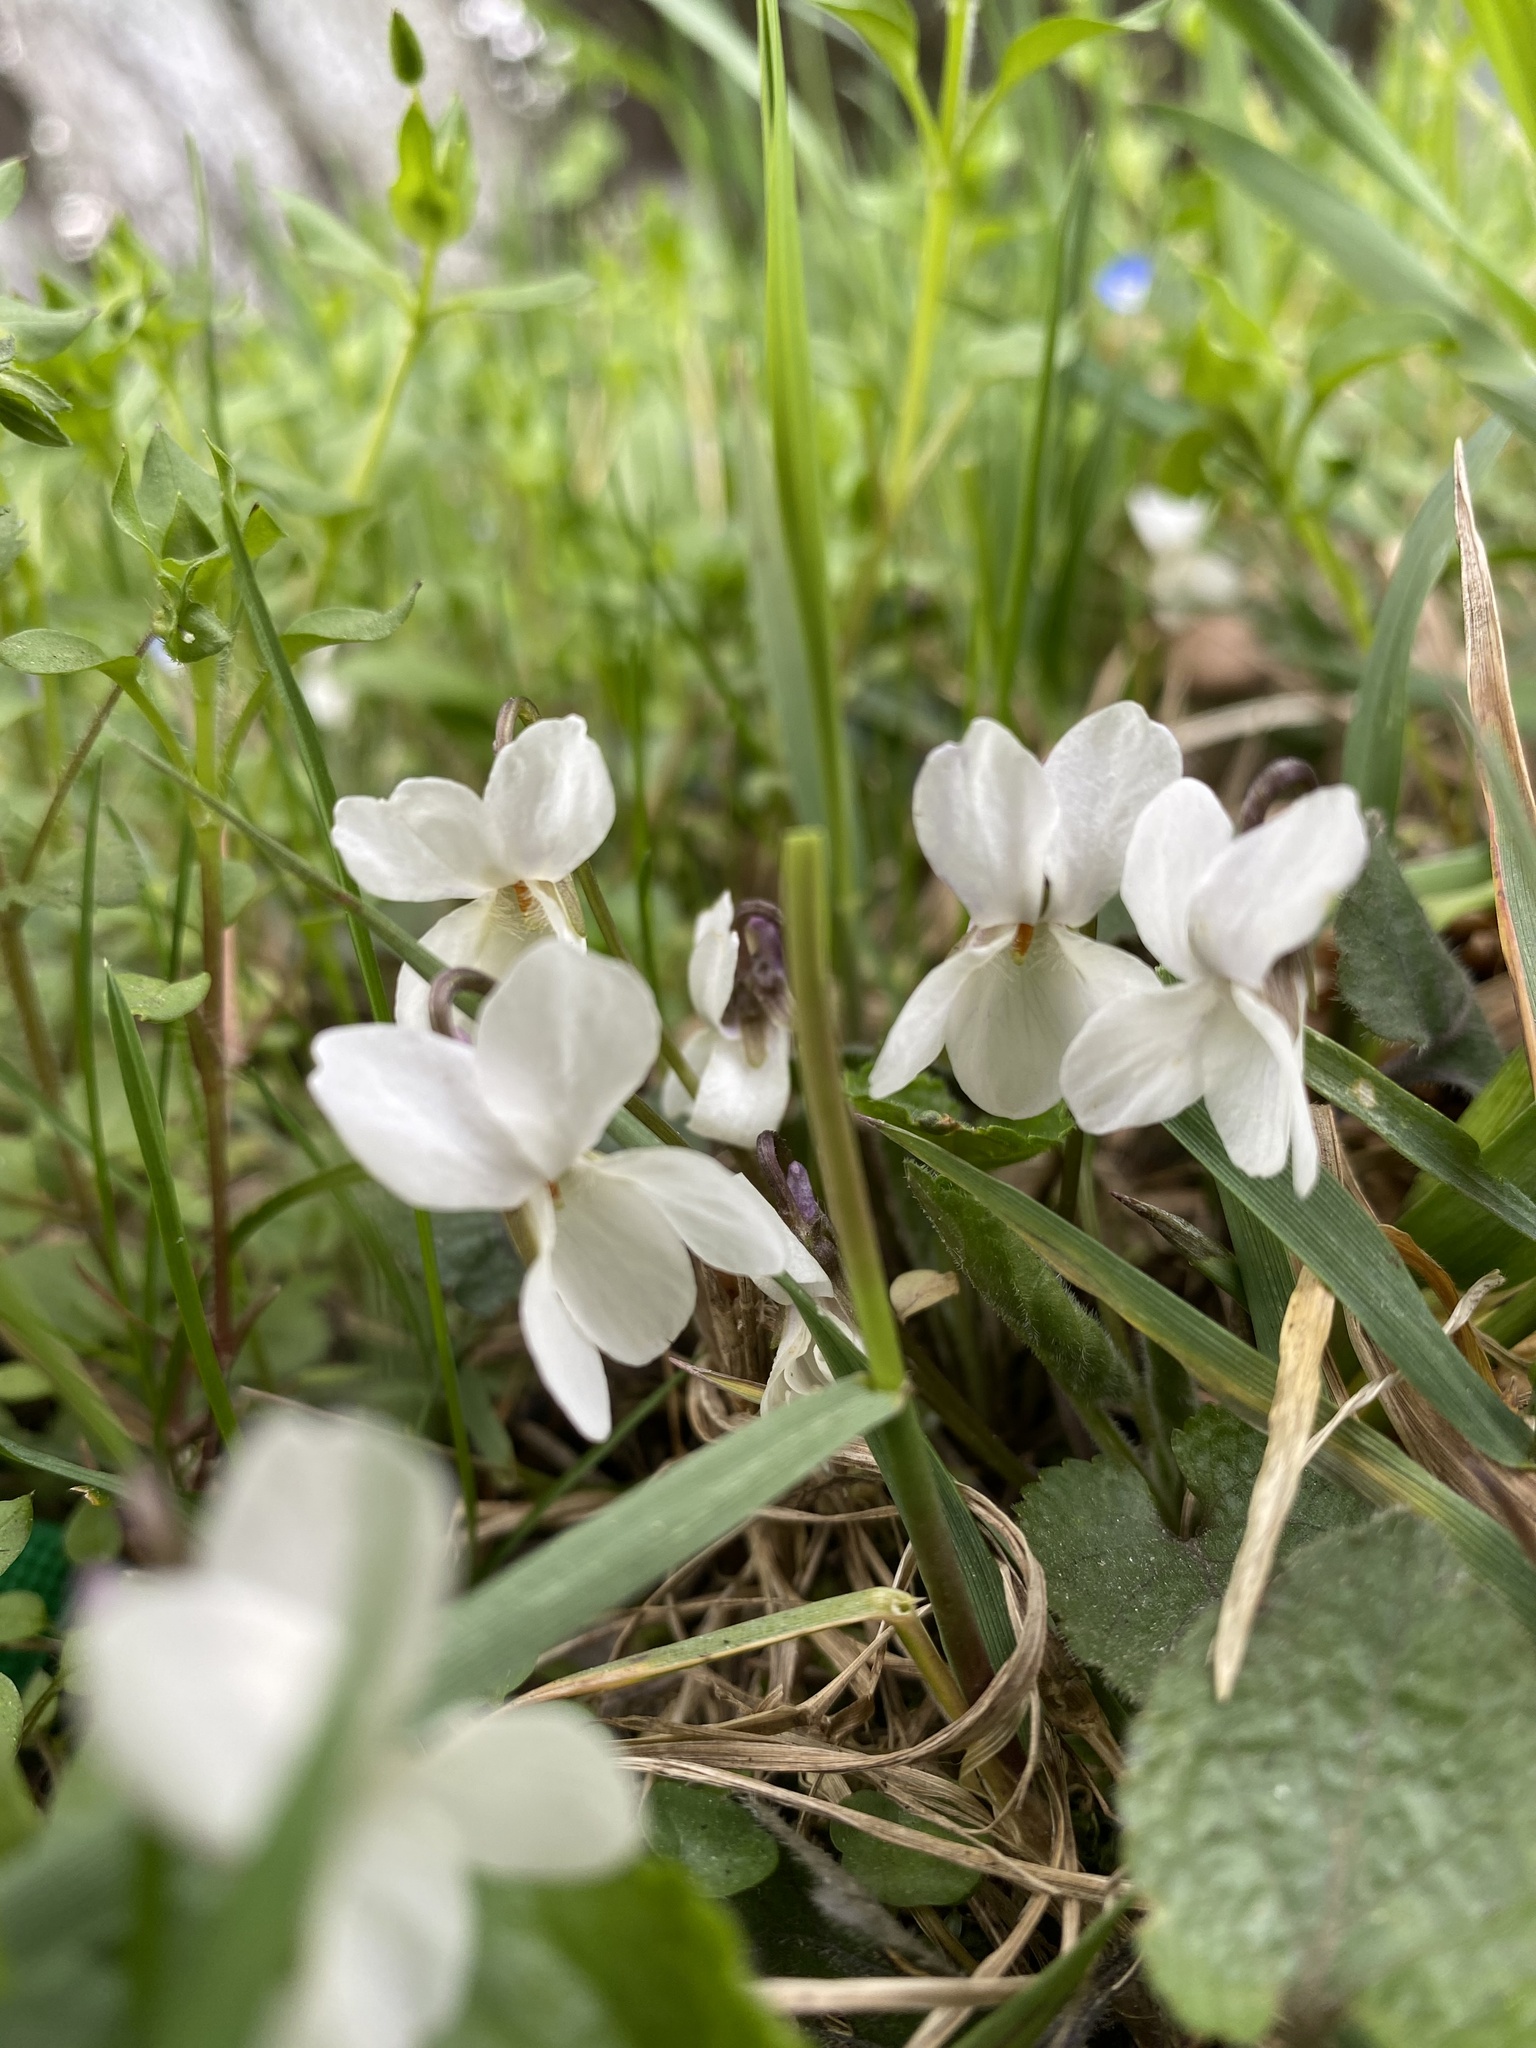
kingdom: Plantae
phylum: Tracheophyta
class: Magnoliopsida
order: Malpighiales
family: Violaceae
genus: Viola
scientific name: Viola alba
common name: White violet
